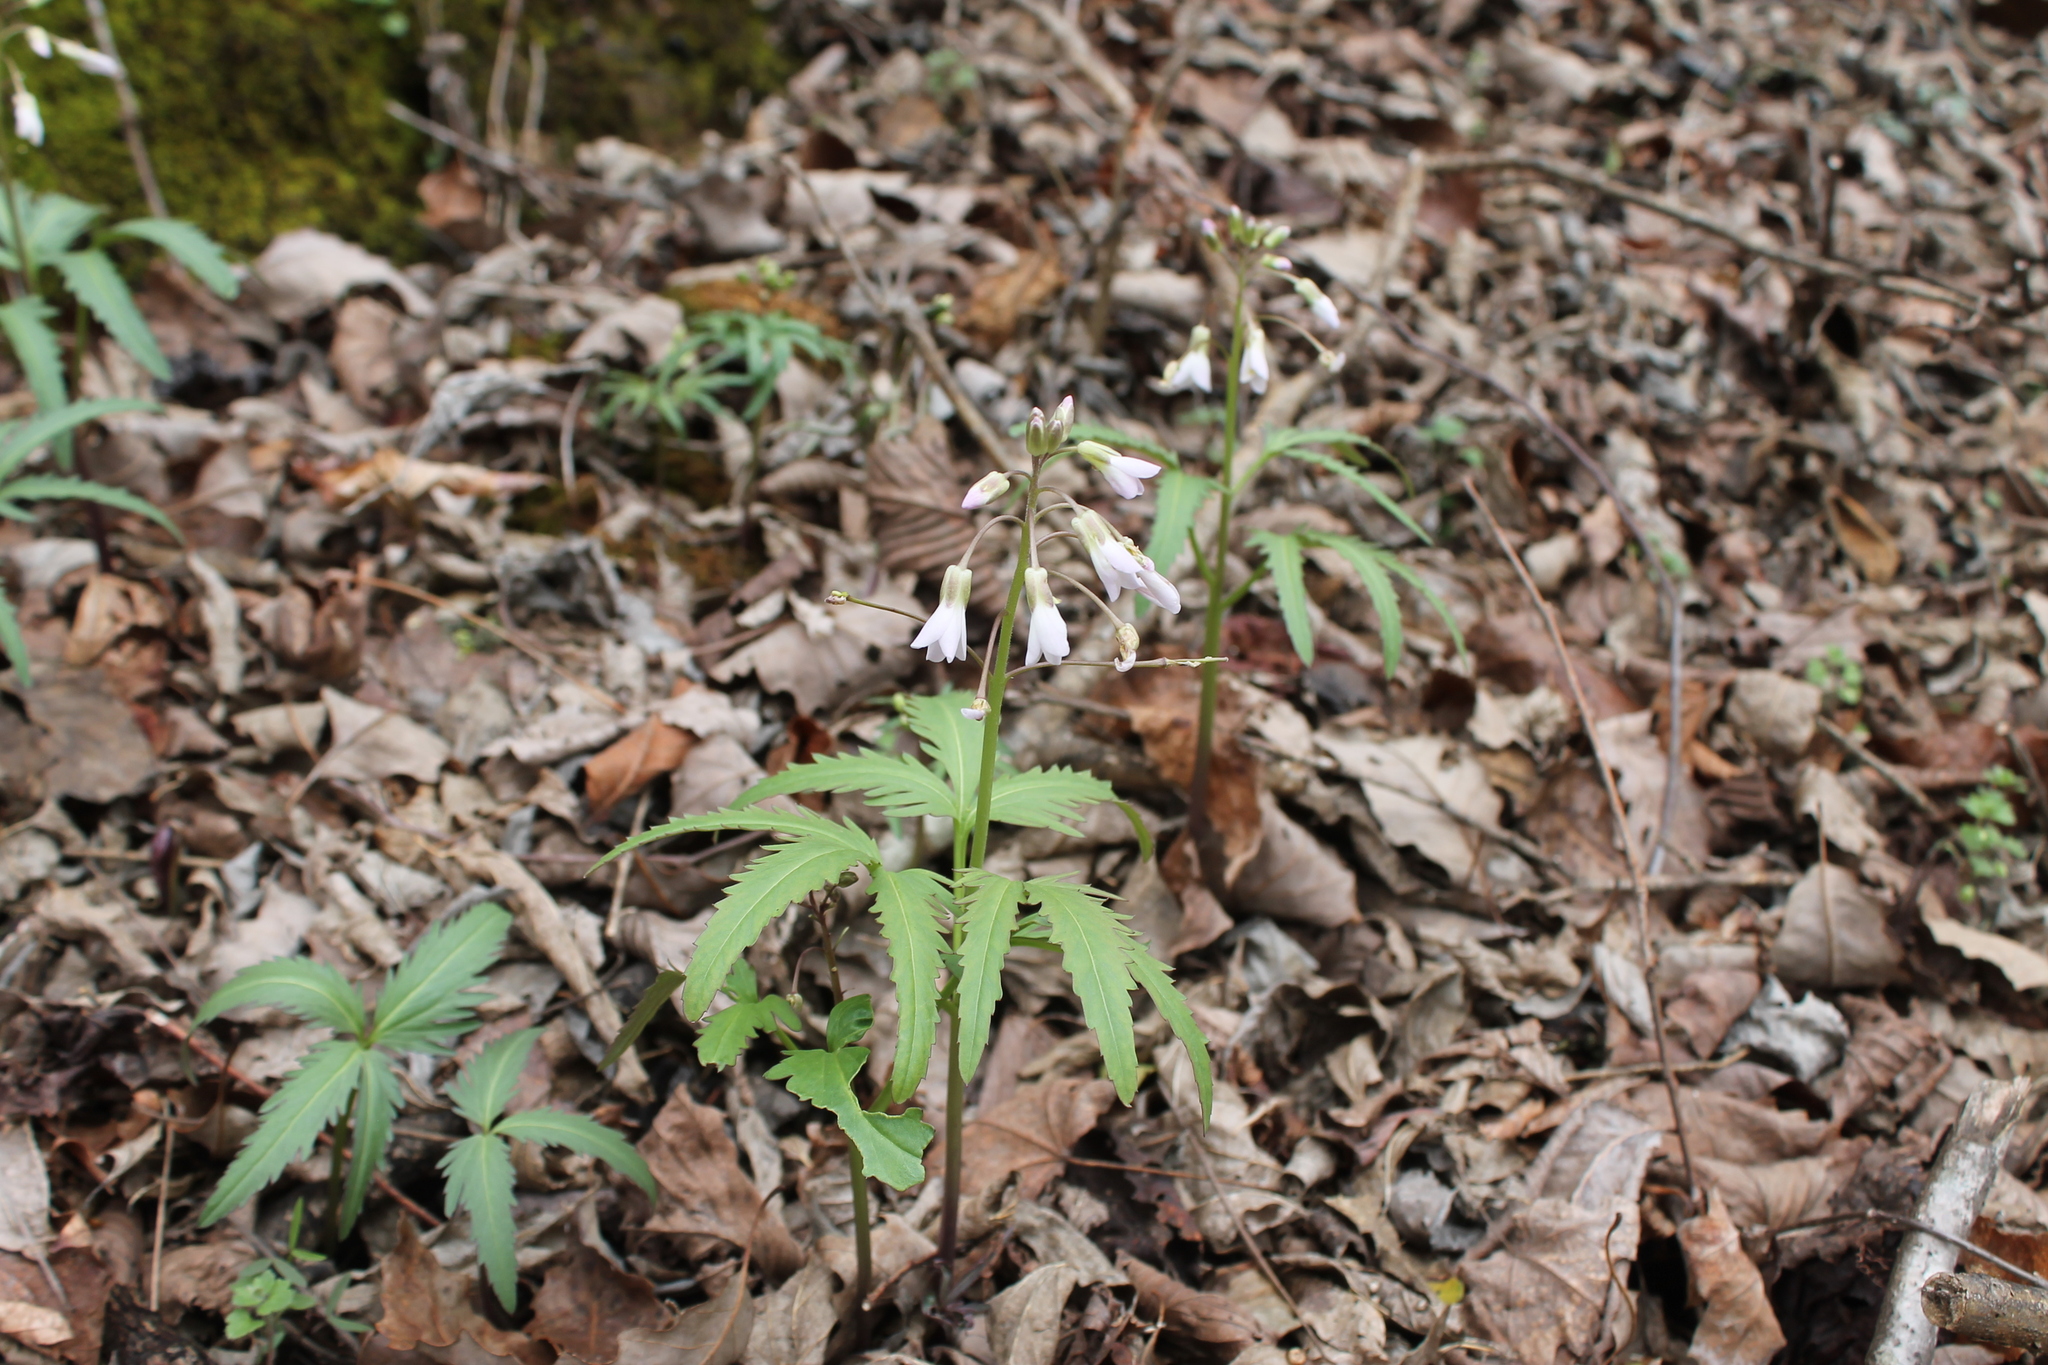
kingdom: Plantae
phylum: Tracheophyta
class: Magnoliopsida
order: Brassicales
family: Brassicaceae
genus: Cardamine
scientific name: Cardamine concatenata
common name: Cut-leaf toothcup
